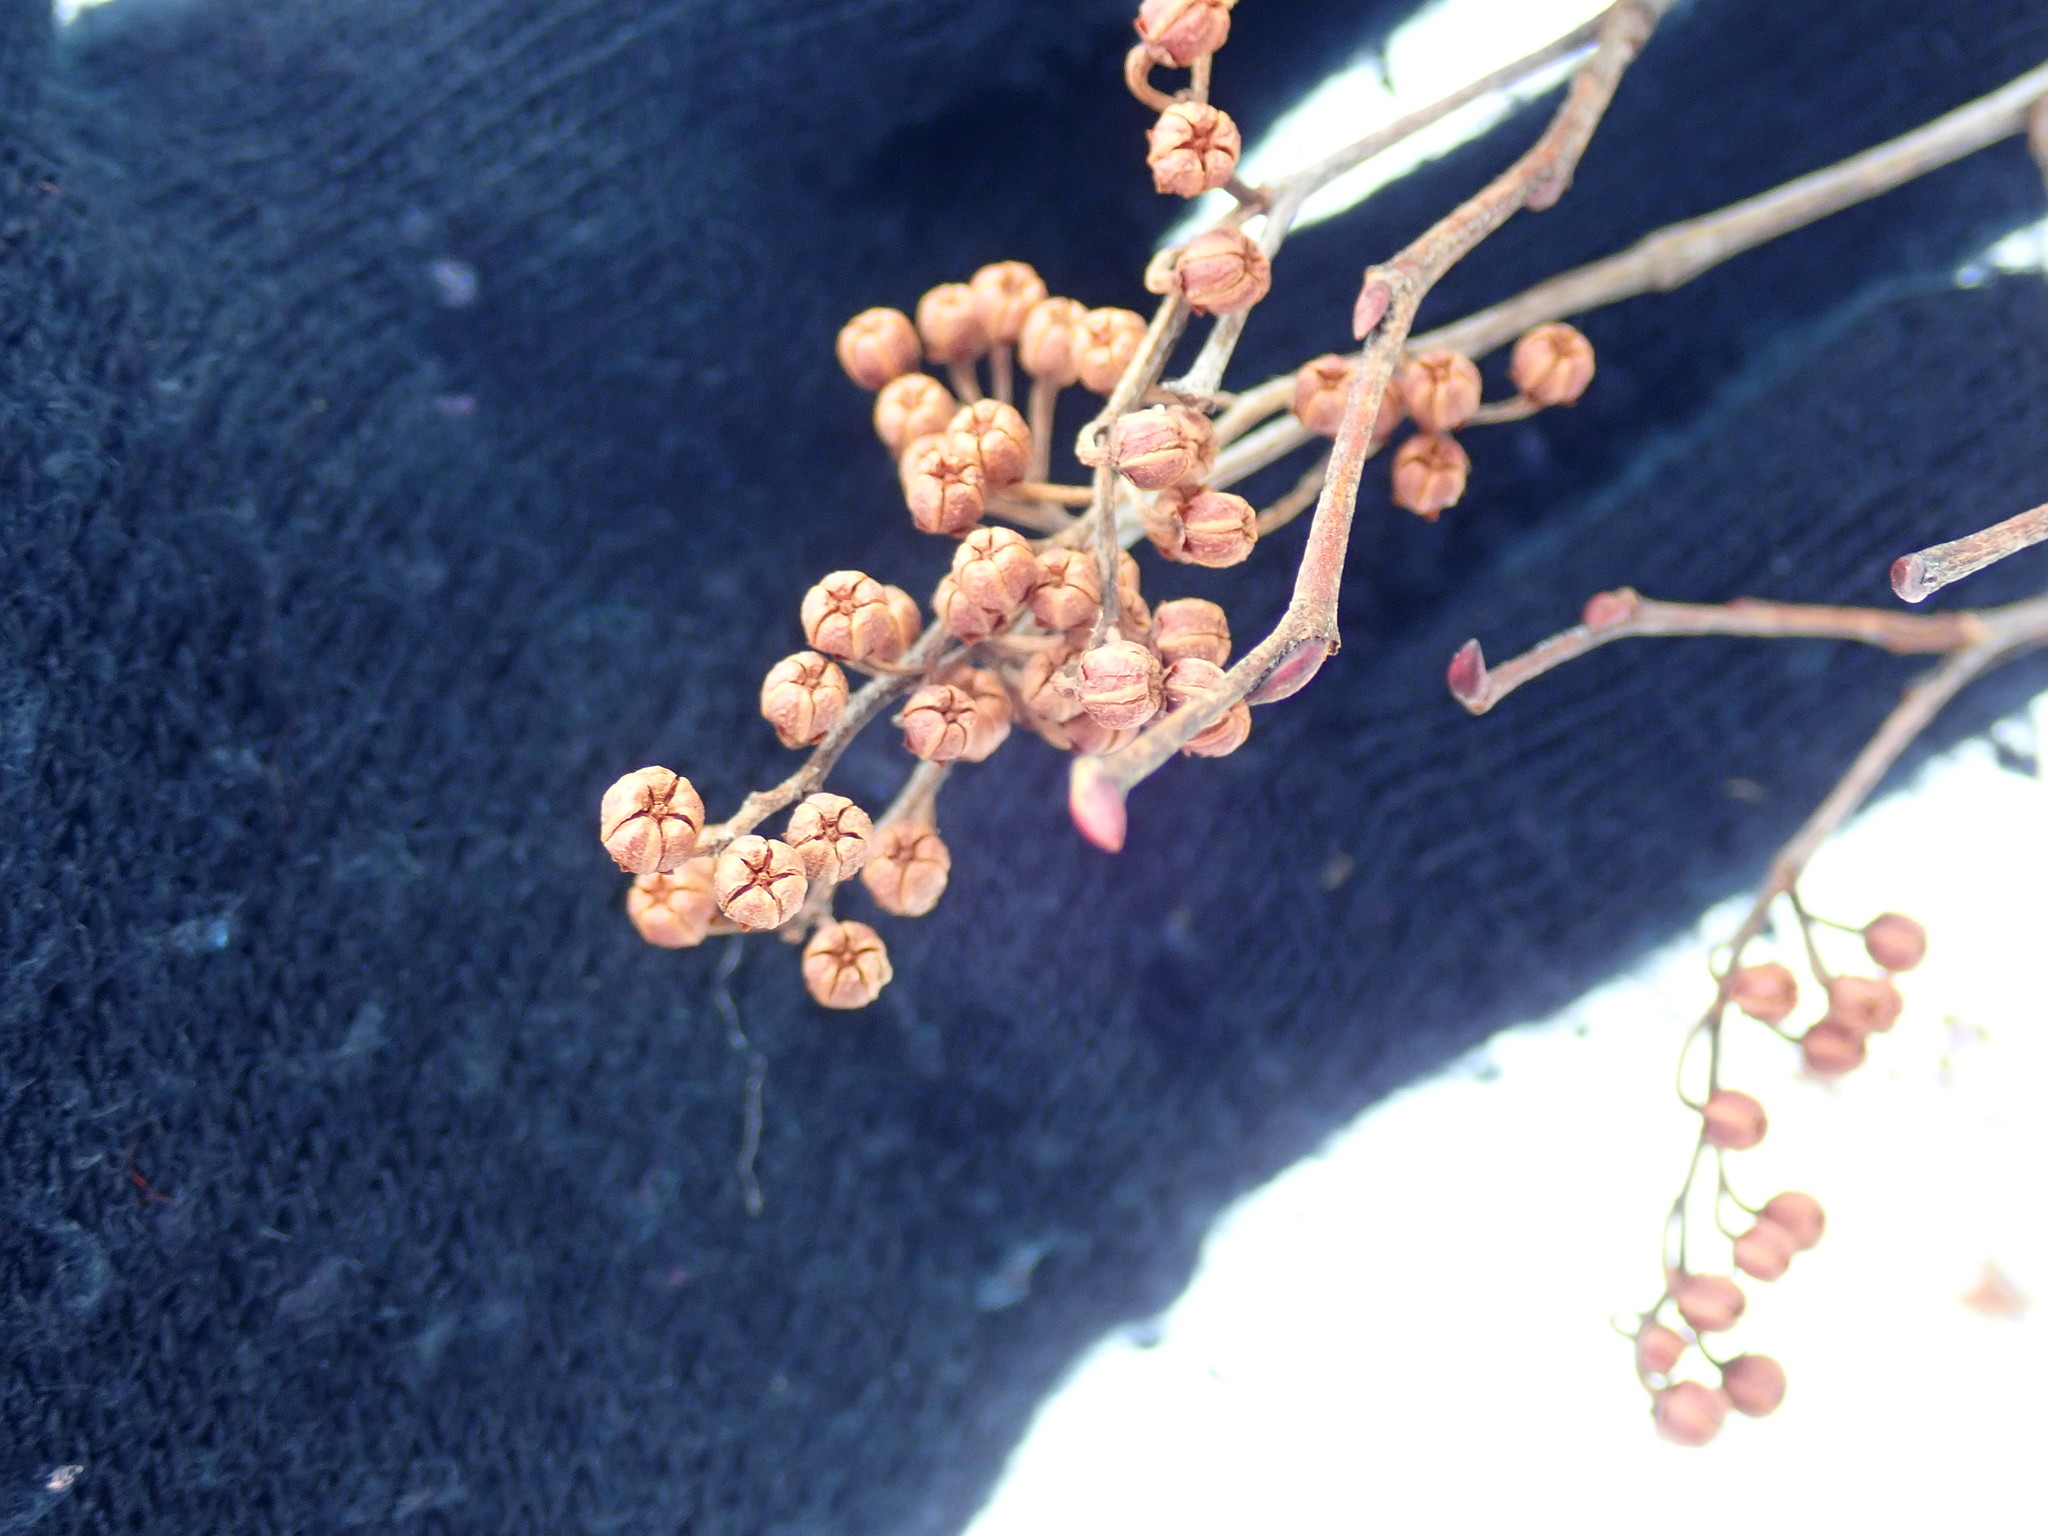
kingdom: Plantae
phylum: Tracheophyta
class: Magnoliopsida
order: Ericales
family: Ericaceae
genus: Lyonia
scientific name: Lyonia ligustrina
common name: Maleberry
